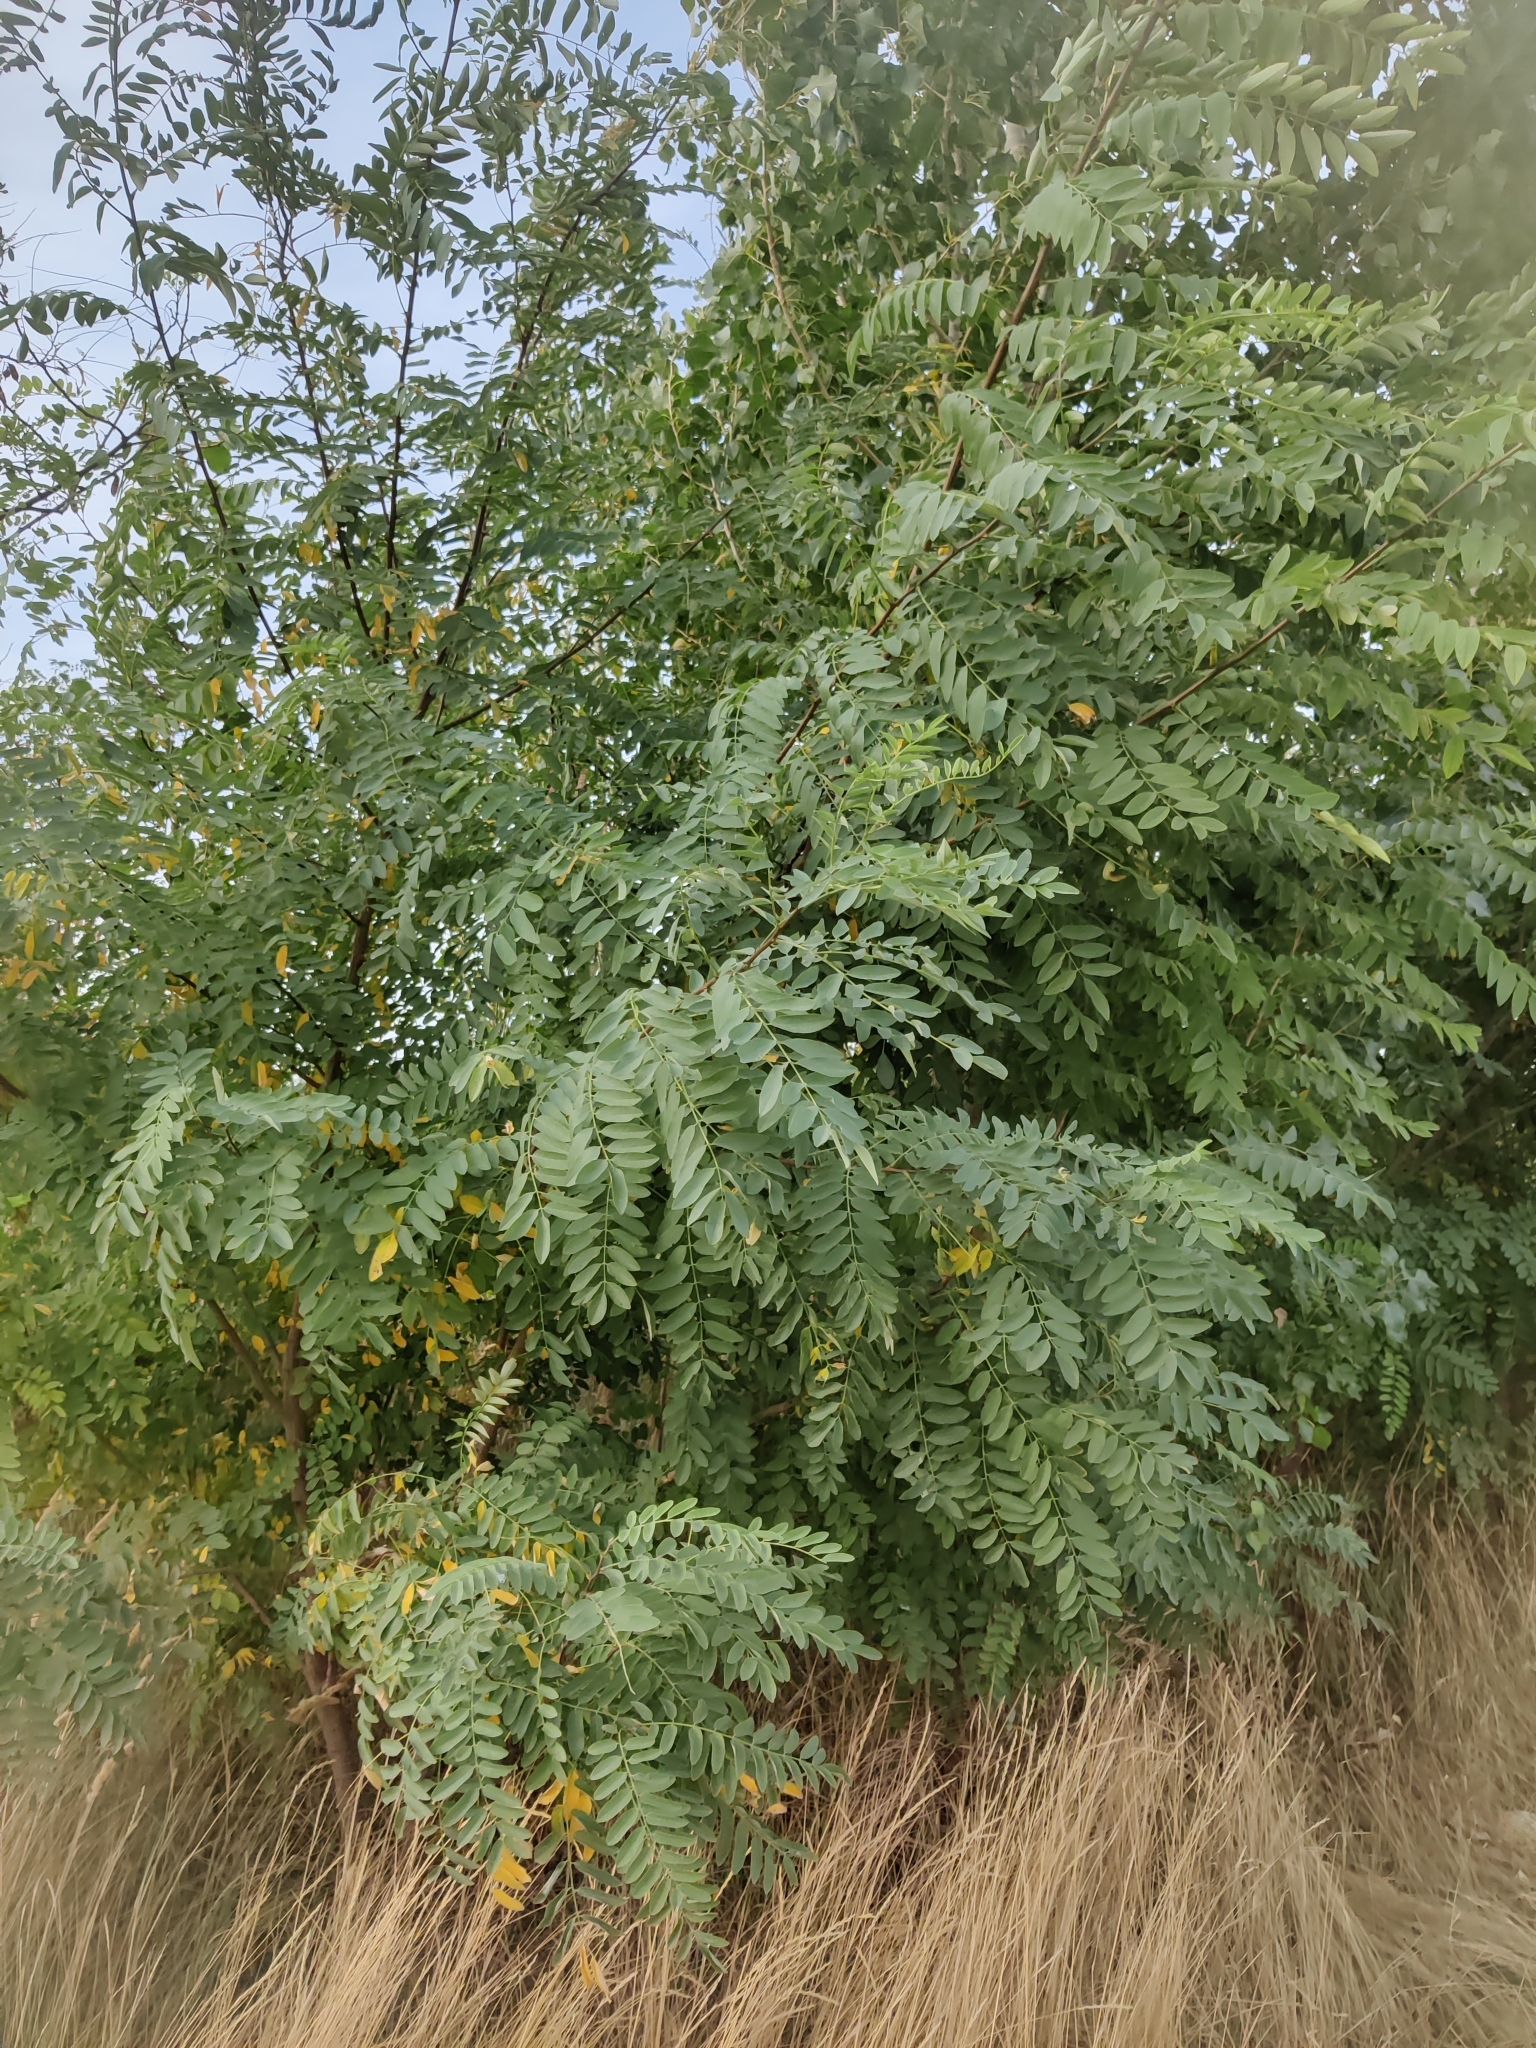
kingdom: Plantae
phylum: Tracheophyta
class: Magnoliopsida
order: Fabales
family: Fabaceae
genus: Robinia
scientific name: Robinia pseudoacacia
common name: Black locust
